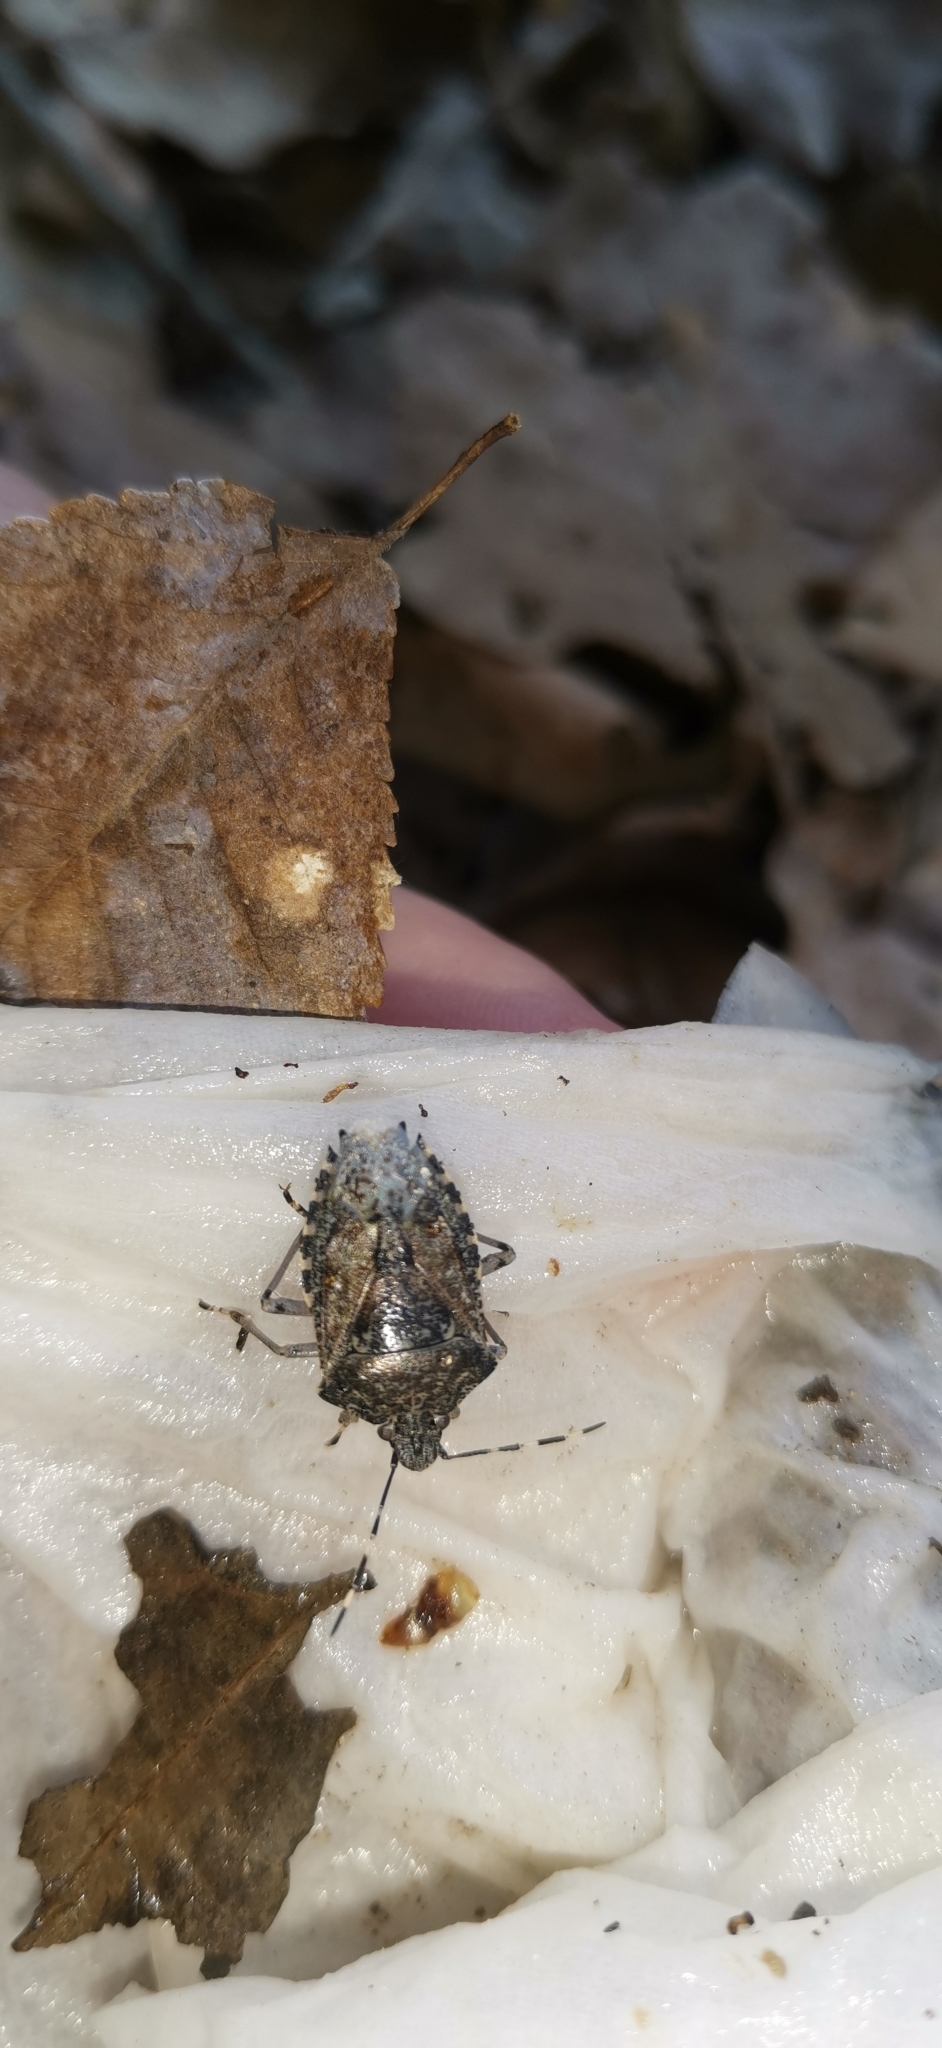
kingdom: Animalia
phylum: Arthropoda
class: Insecta
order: Hemiptera
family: Pentatomidae
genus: Rhaphigaster
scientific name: Rhaphigaster nebulosa
